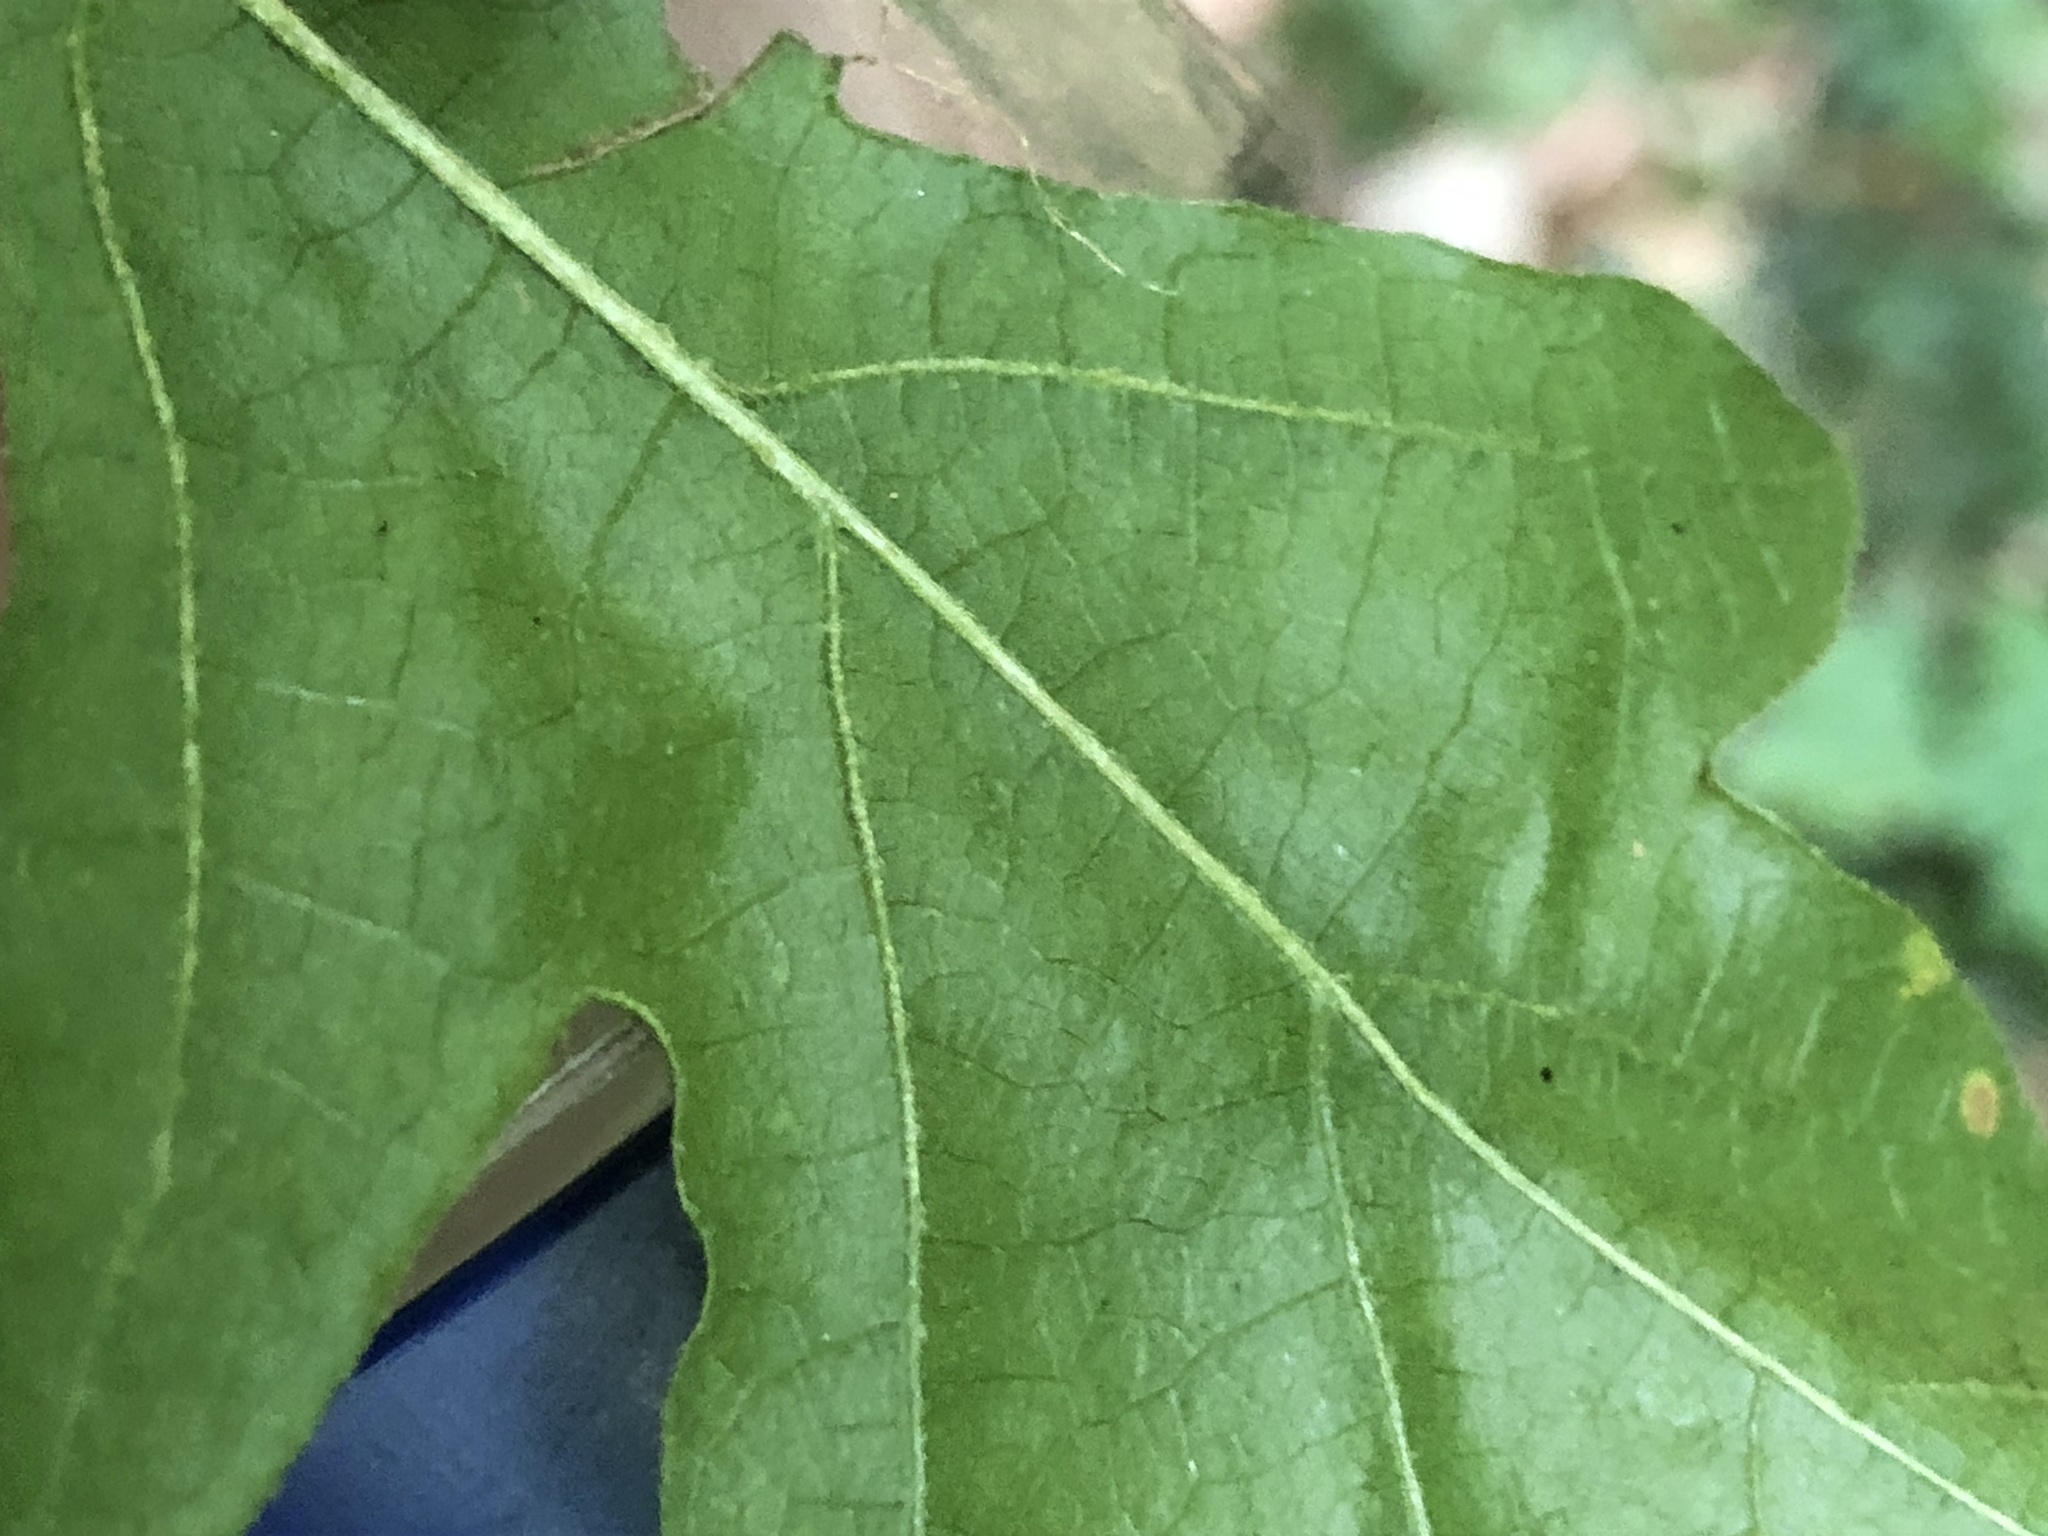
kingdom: Plantae
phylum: Tracheophyta
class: Magnoliopsida
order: Fagales
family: Fagaceae
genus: Quercus
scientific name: Quercus cerris
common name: Turkey oak
